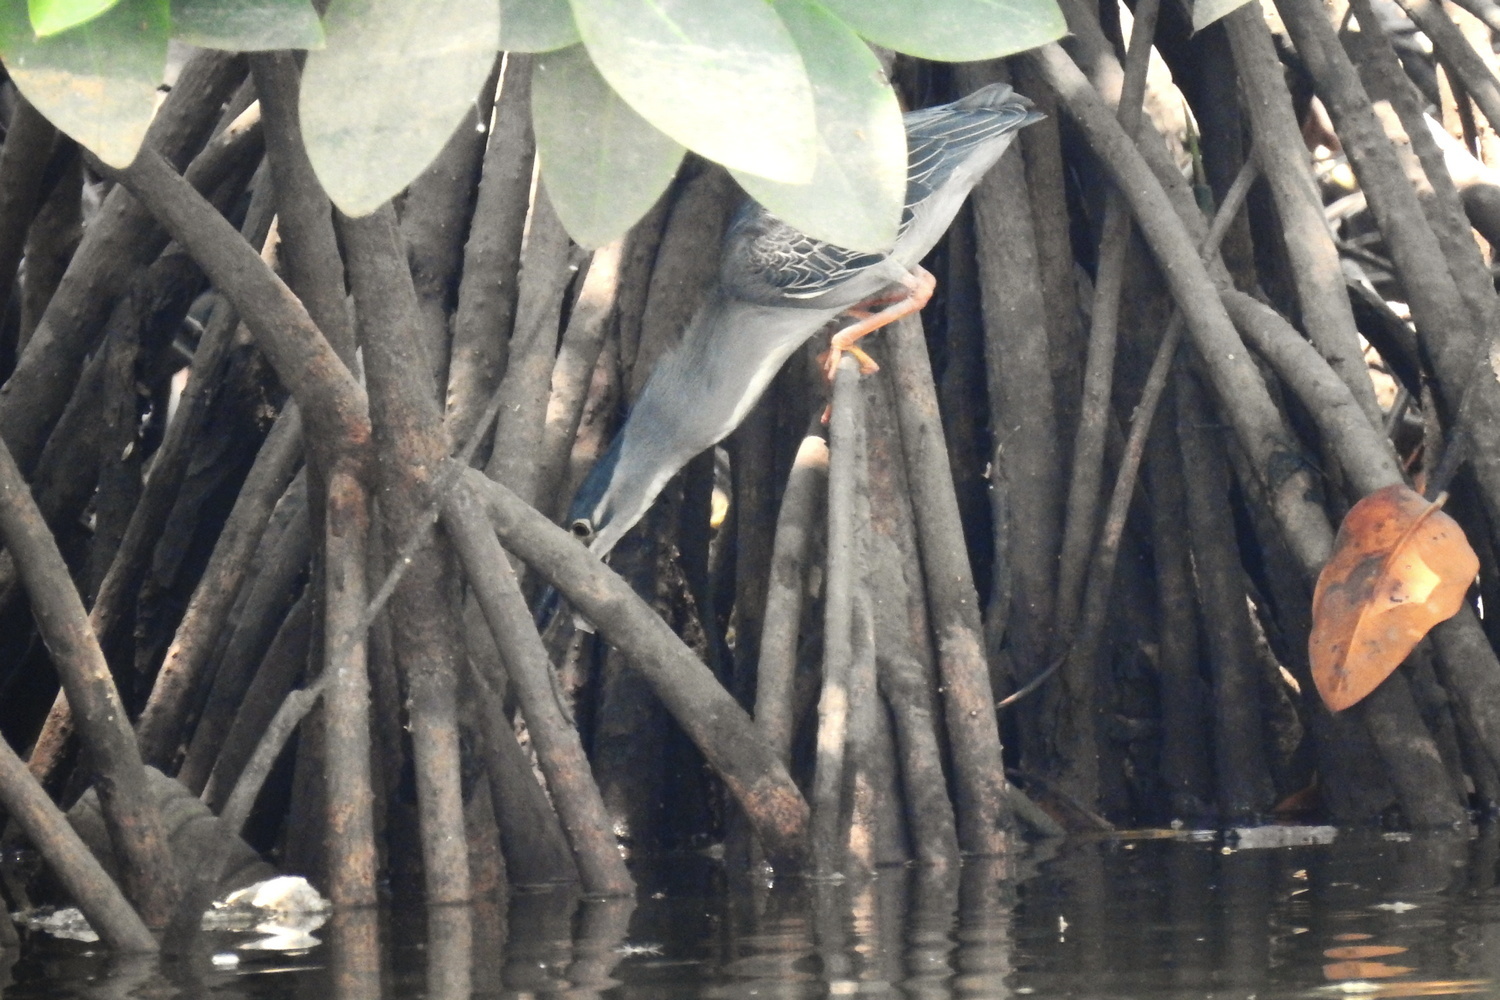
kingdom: Animalia
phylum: Chordata
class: Aves
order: Pelecaniformes
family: Ardeidae
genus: Butorides
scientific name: Butorides striata
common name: Striated heron
